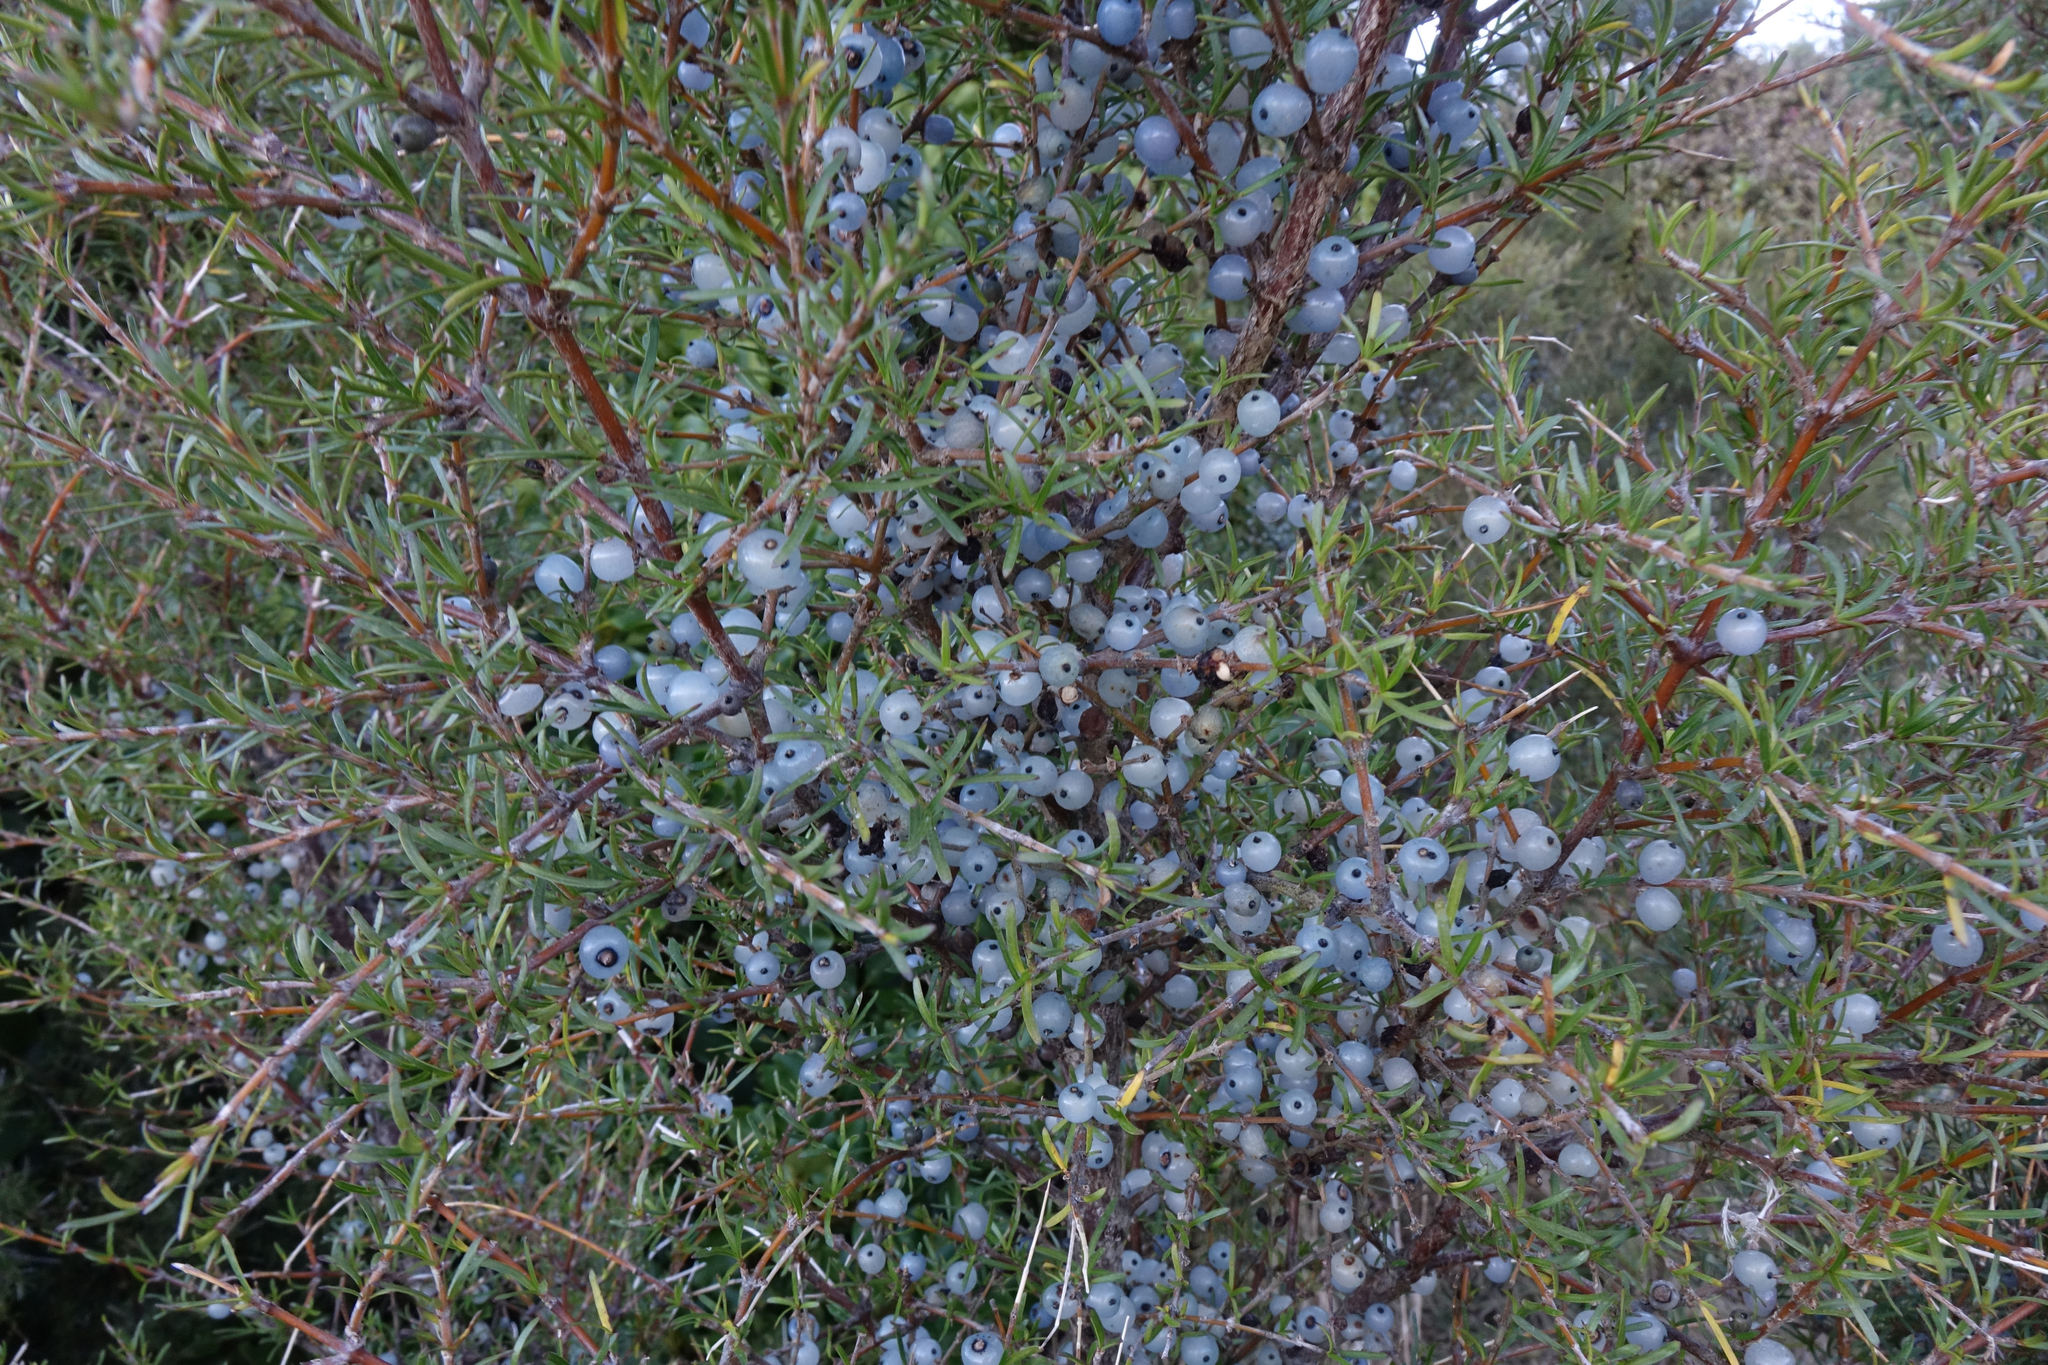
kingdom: Plantae
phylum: Tracheophyta
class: Magnoliopsida
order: Gentianales
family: Rubiaceae
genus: Coprosma
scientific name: Coprosma rugosa
